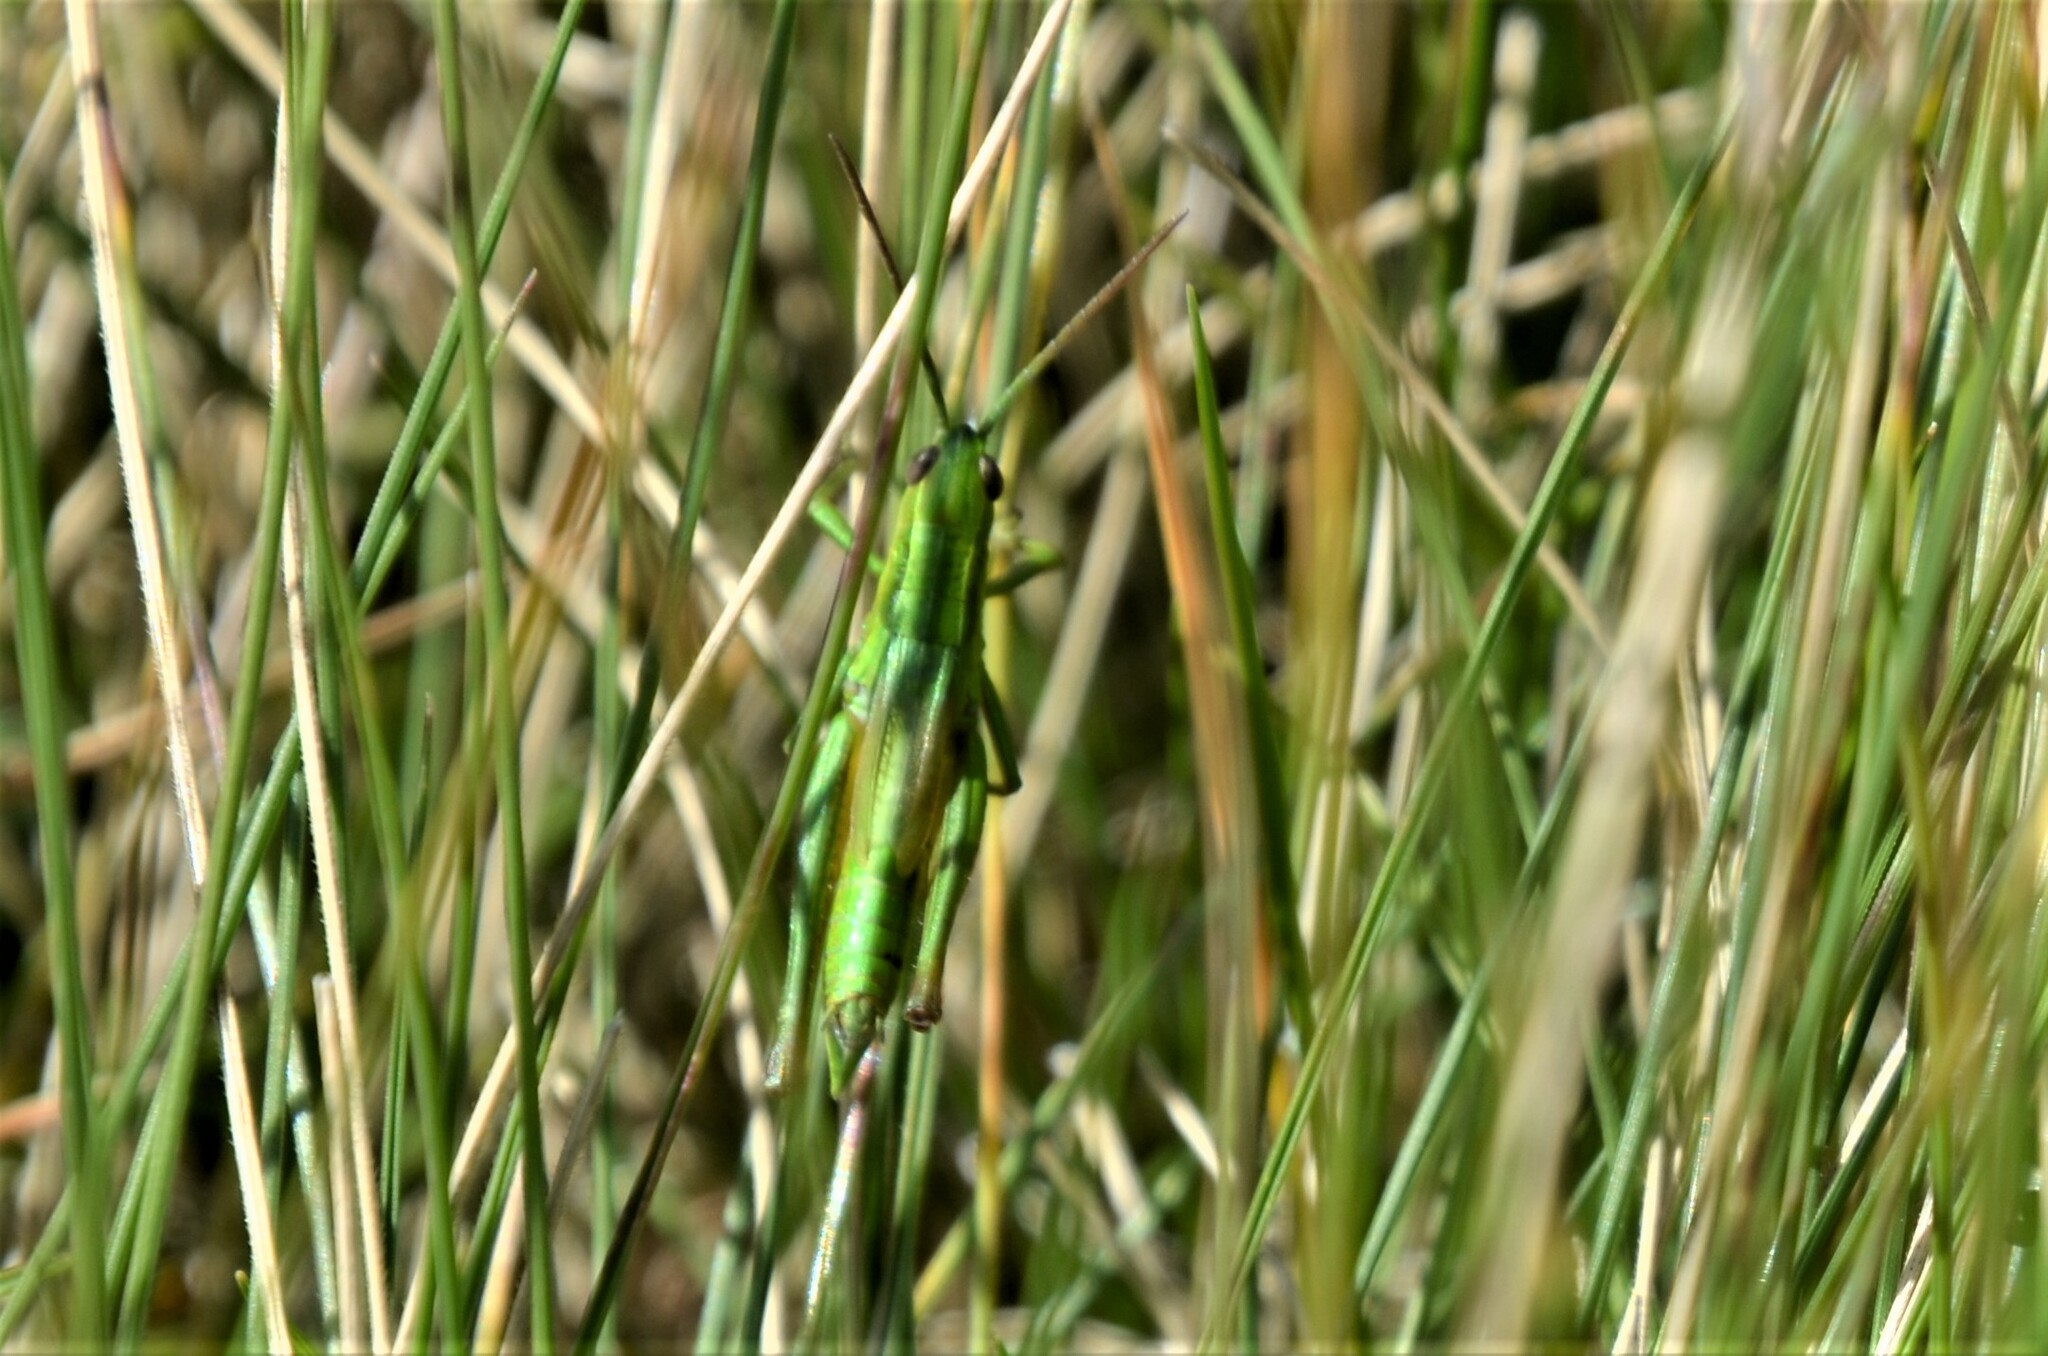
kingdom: Animalia
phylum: Arthropoda
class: Insecta
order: Orthoptera
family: Acrididae
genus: Euthystira
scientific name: Euthystira brachyptera
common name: Small gold grasshopper
